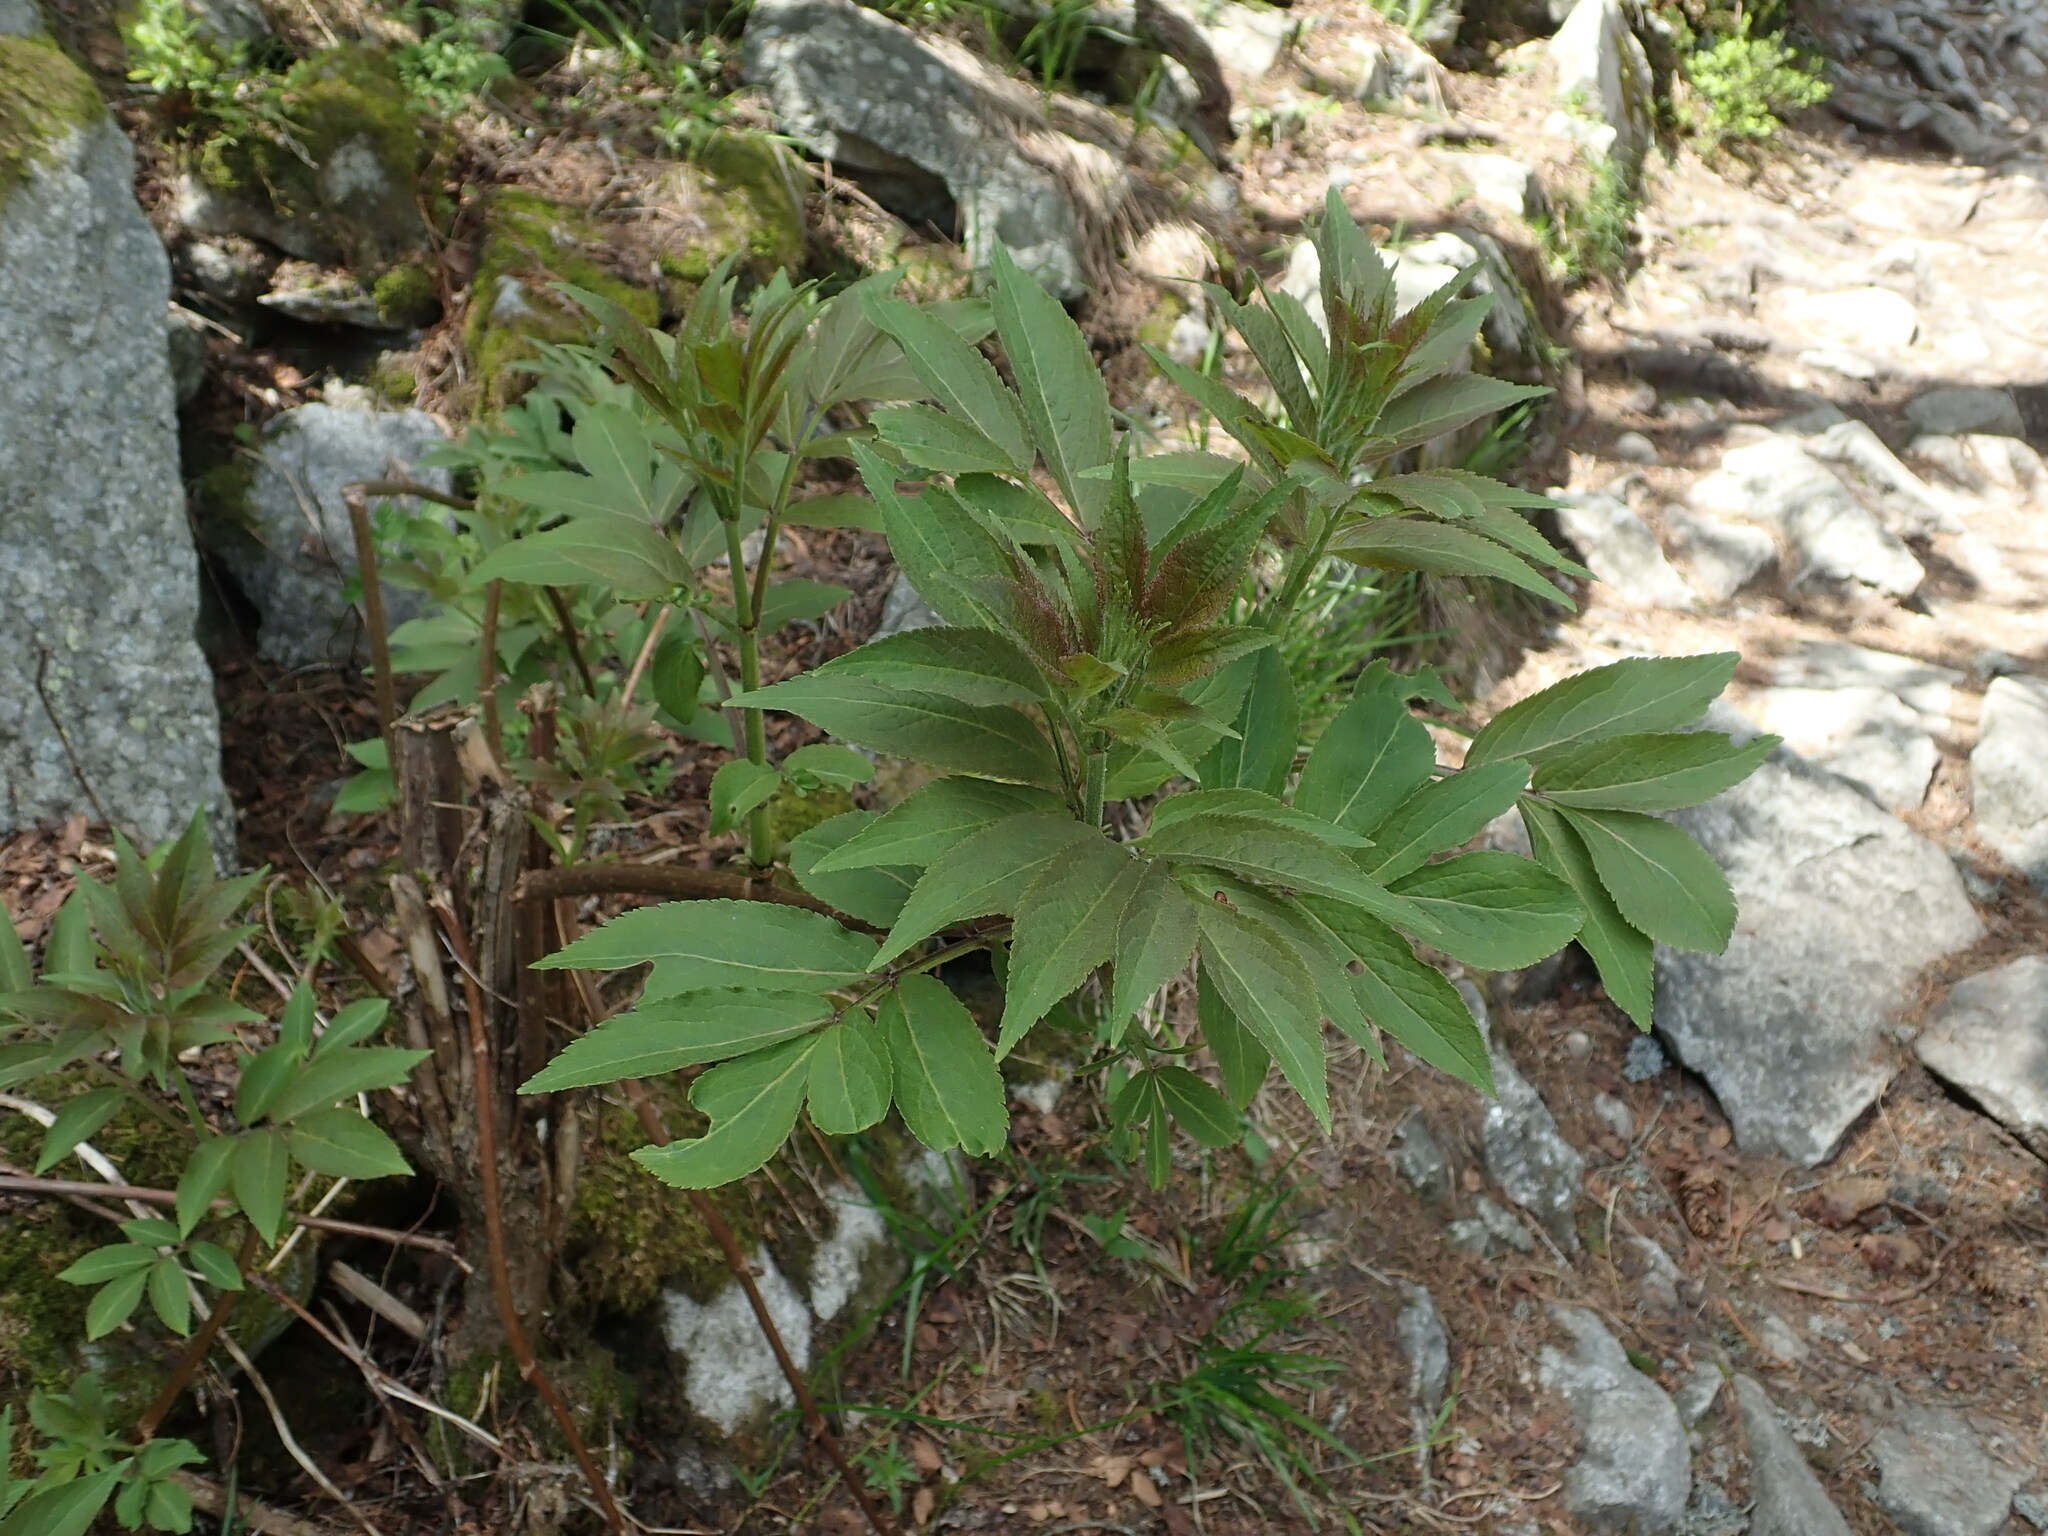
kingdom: Plantae
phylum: Tracheophyta
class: Magnoliopsida
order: Dipsacales
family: Viburnaceae
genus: Sambucus
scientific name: Sambucus racemosa
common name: Red-berried elder
